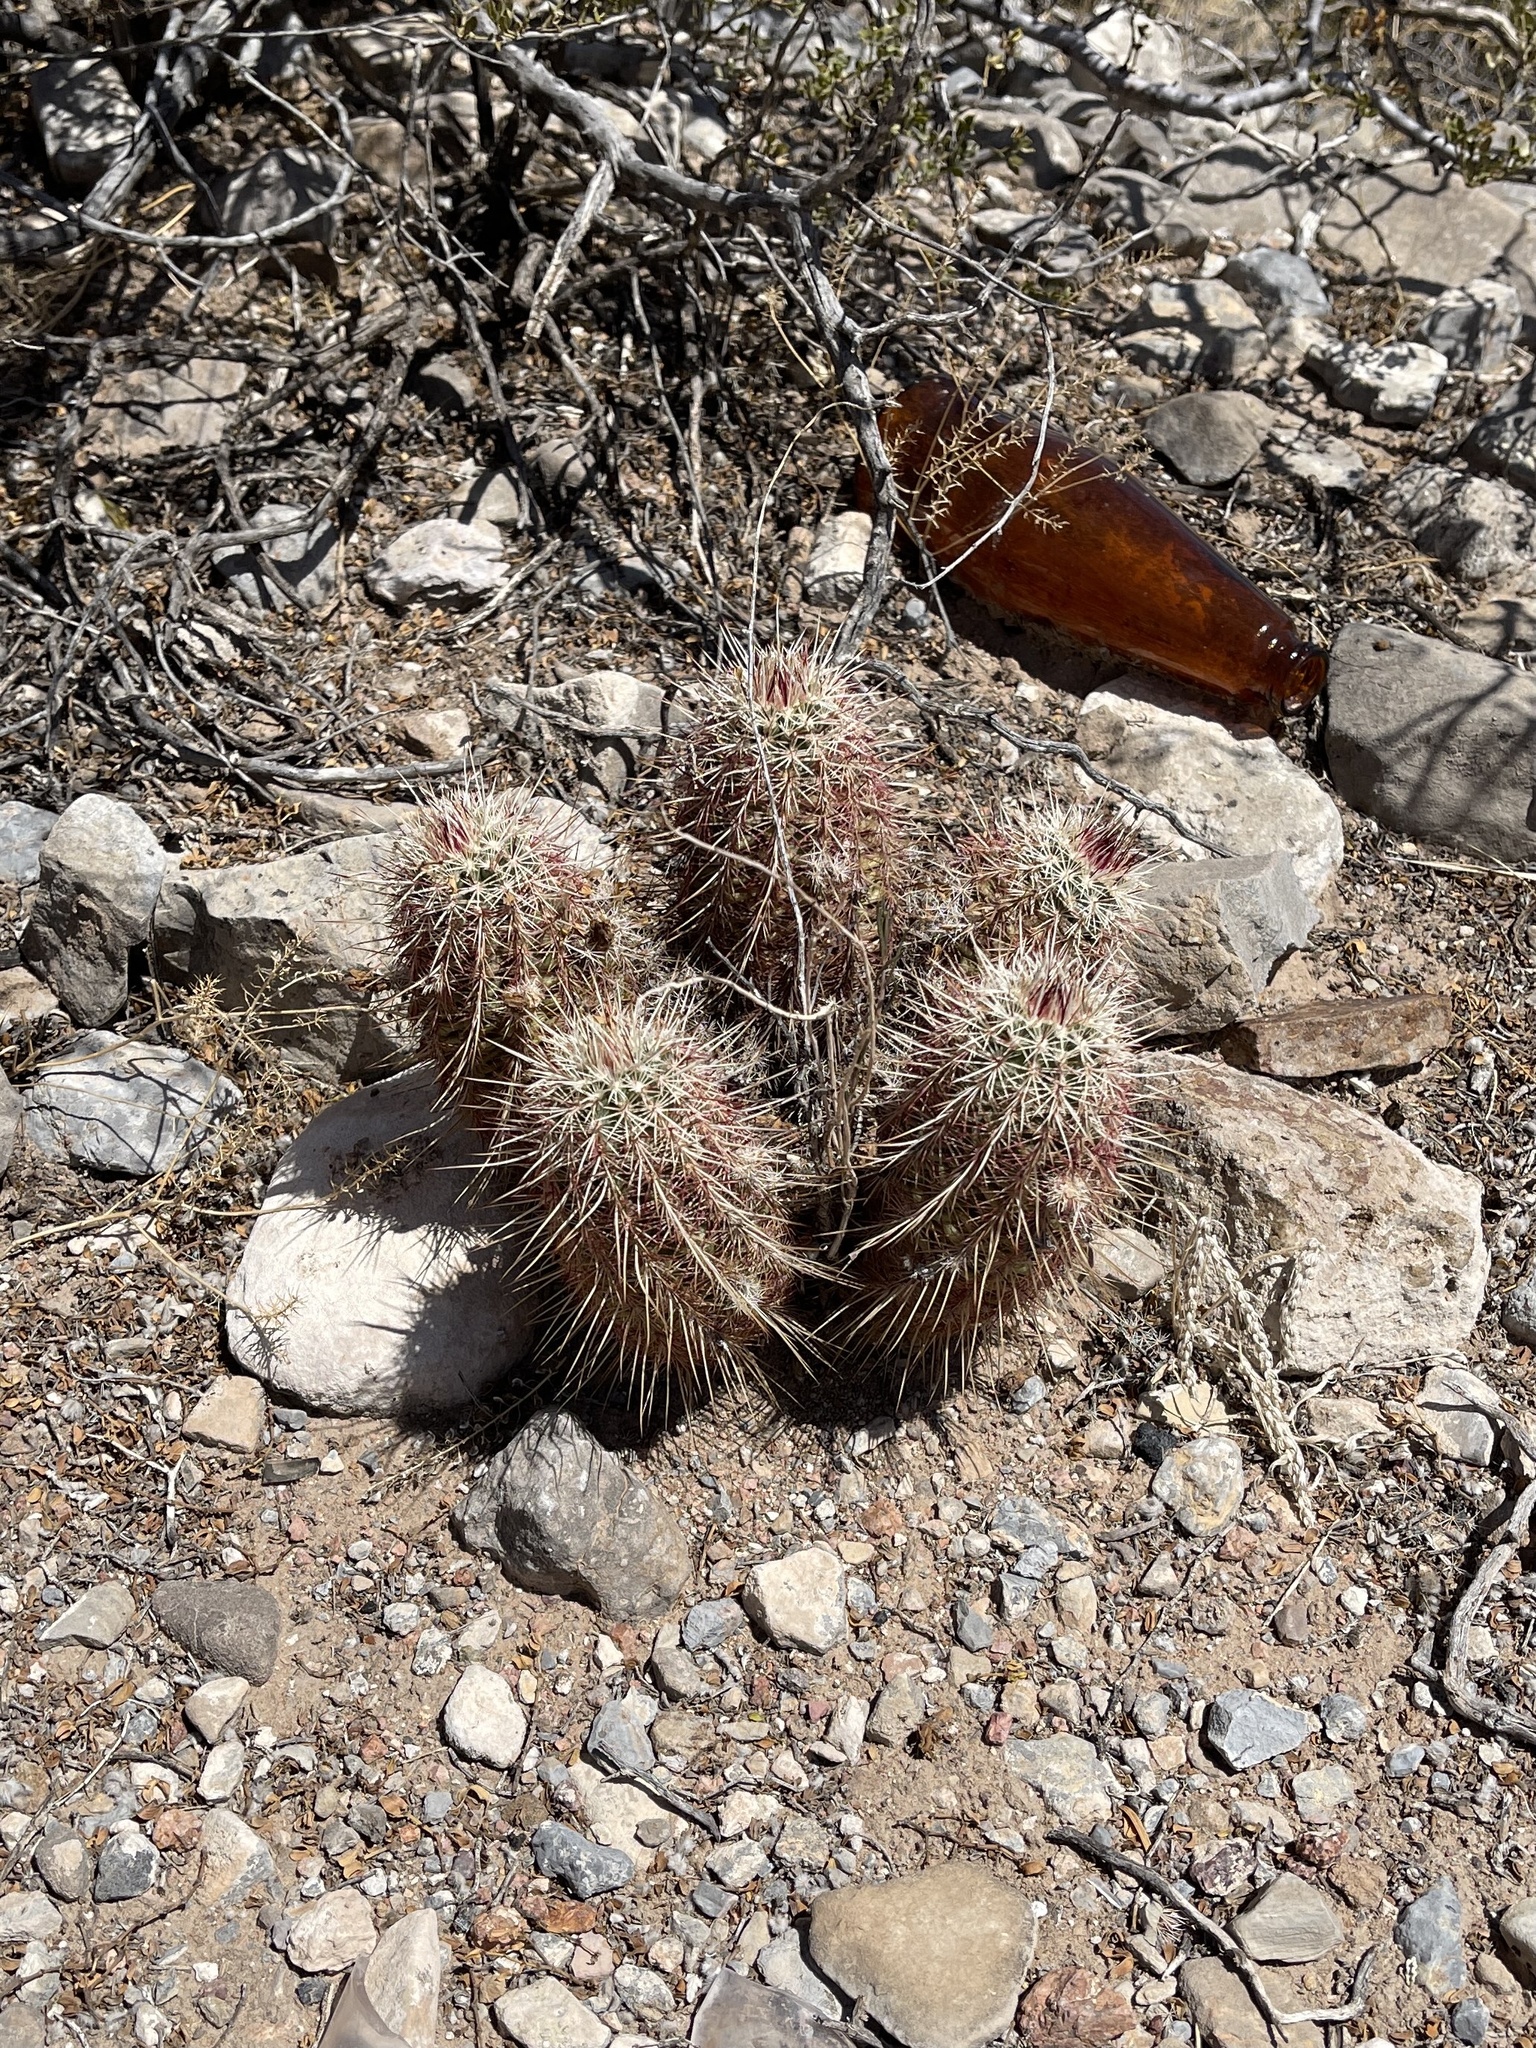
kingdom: Plantae
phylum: Tracheophyta
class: Magnoliopsida
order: Caryophyllales
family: Cactaceae
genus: Echinocereus
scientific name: Echinocereus viridiflorus
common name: Nylon hedgehog cactus
